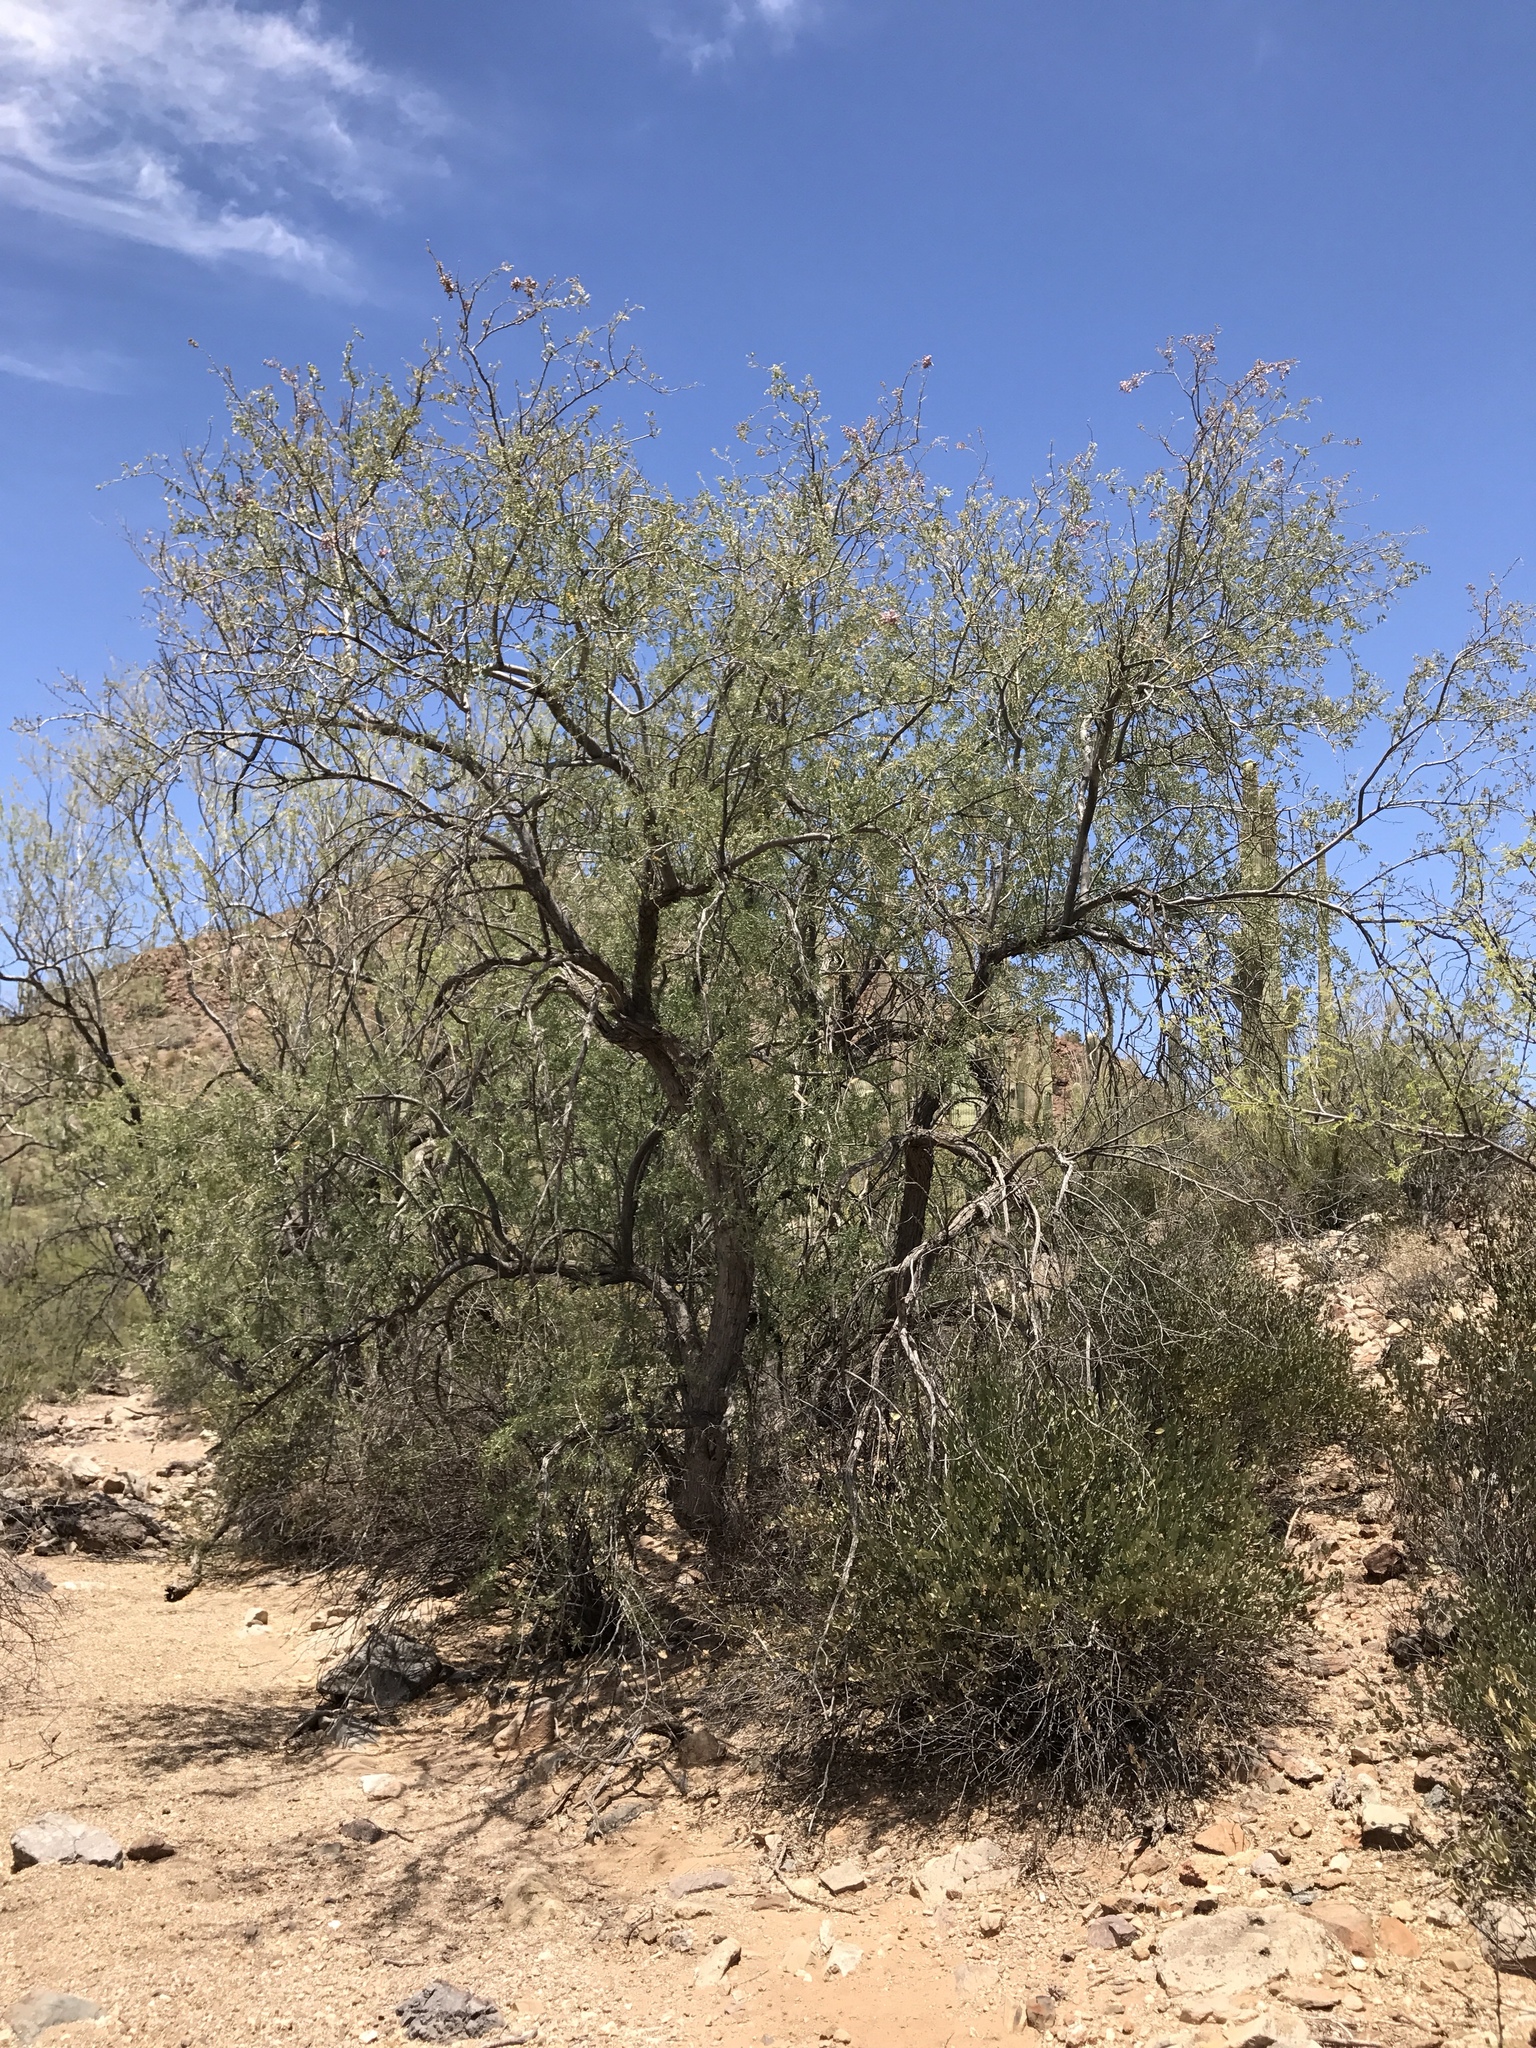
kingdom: Plantae
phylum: Tracheophyta
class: Magnoliopsida
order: Fabales
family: Fabaceae
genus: Olneya
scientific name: Olneya tesota
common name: Desert ironwood
